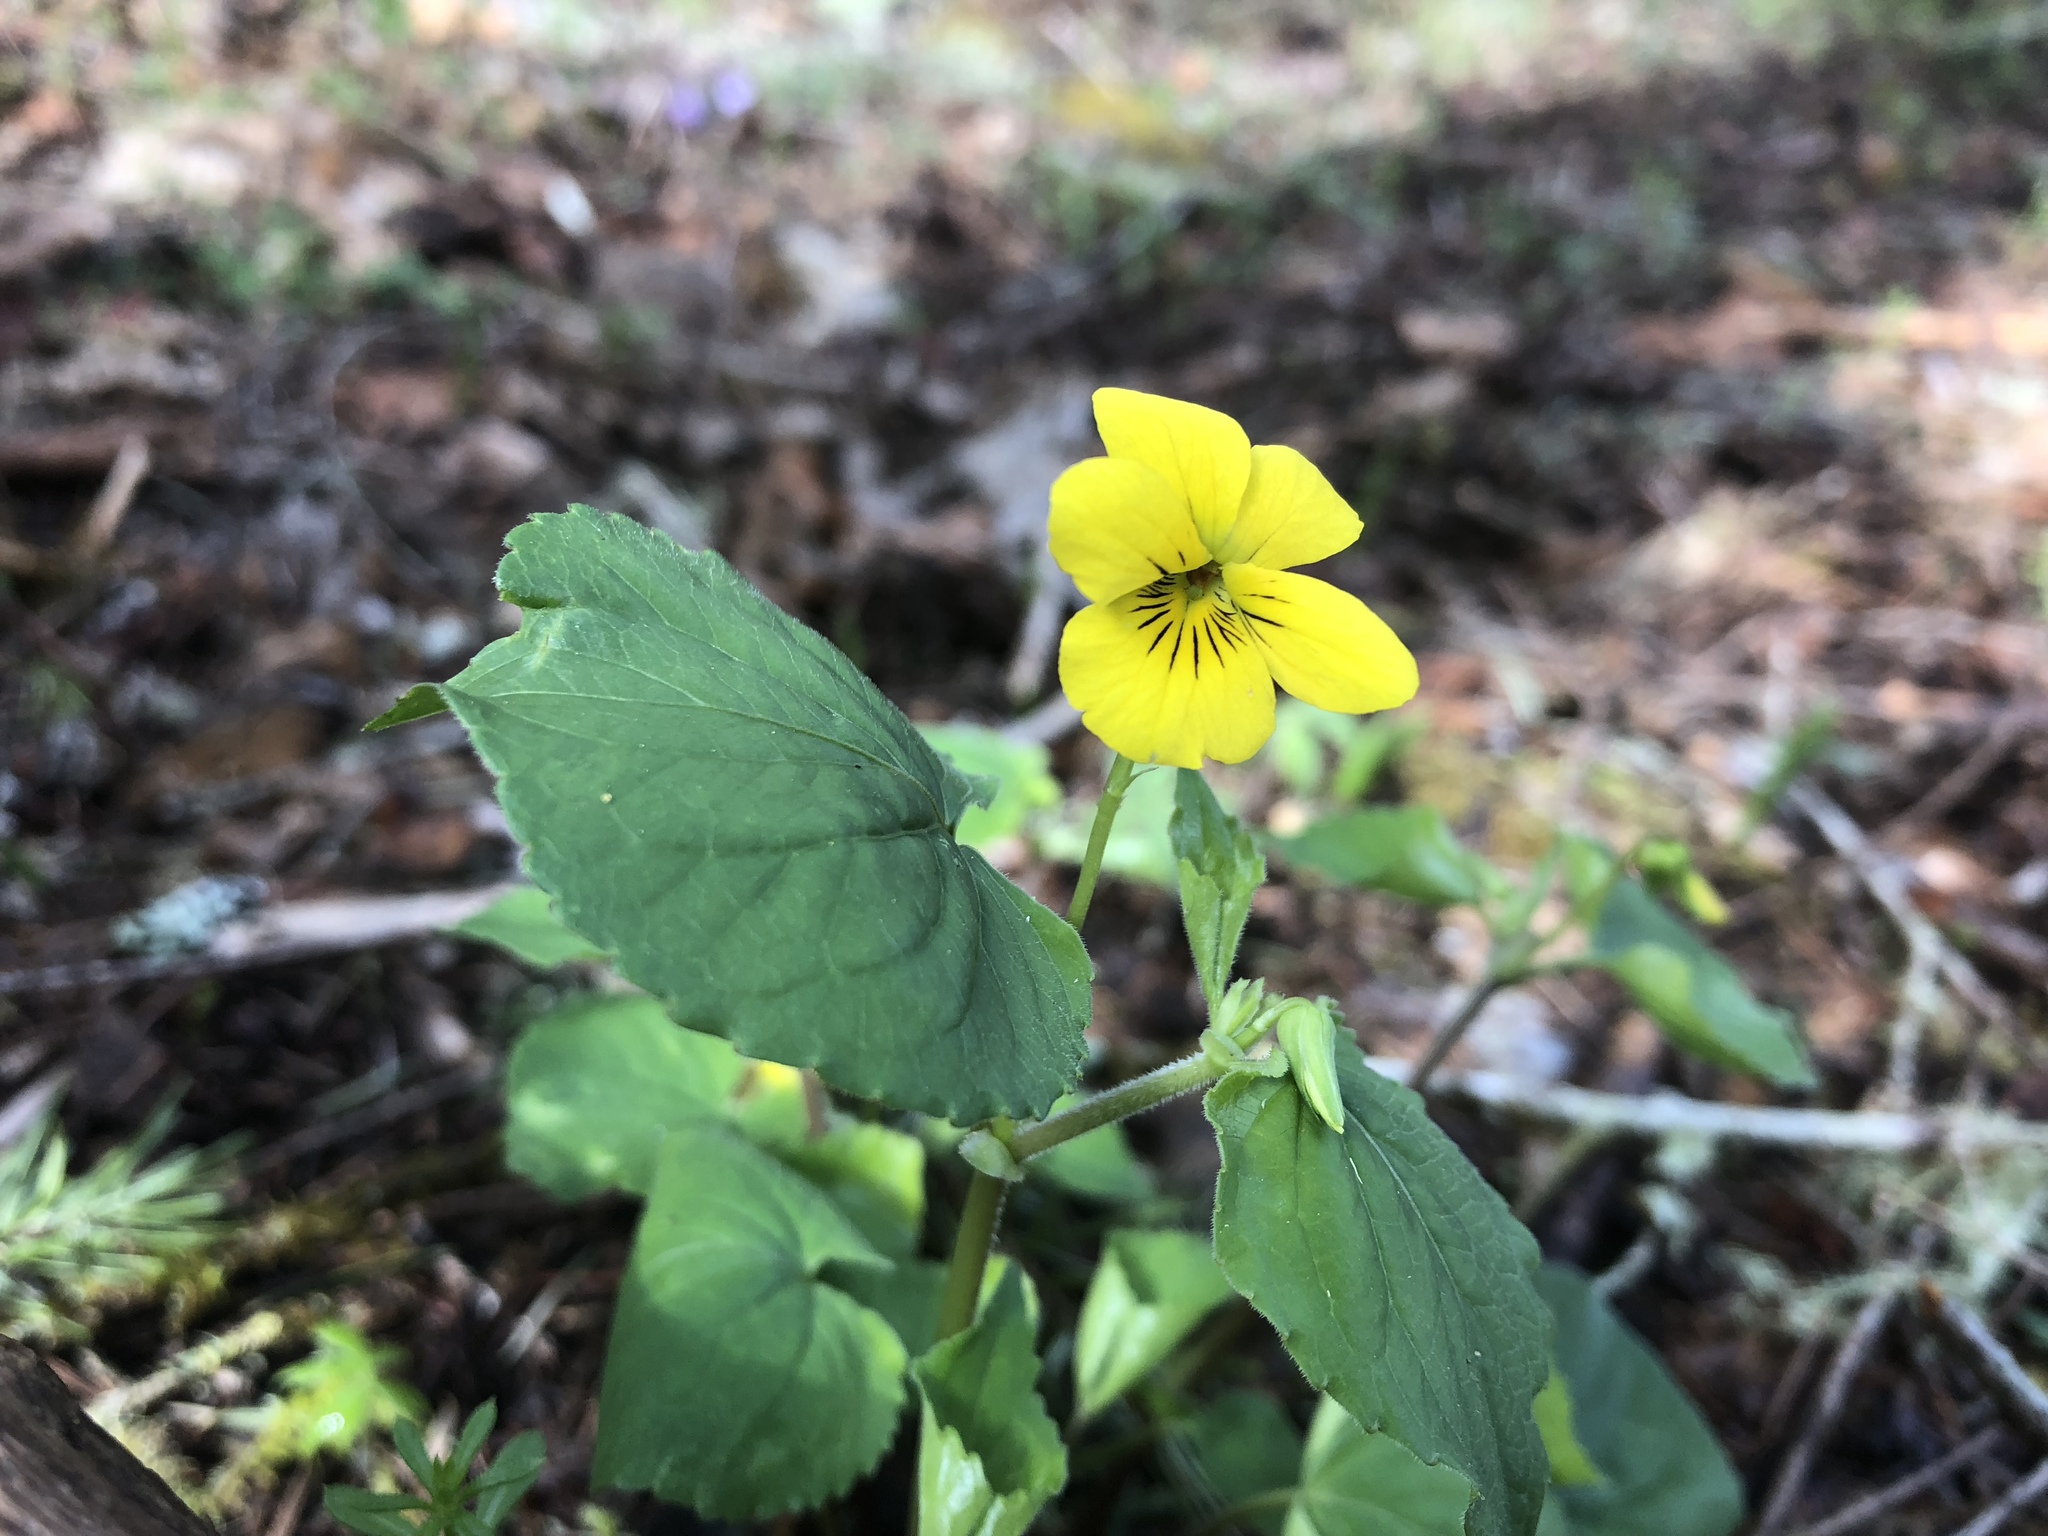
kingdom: Plantae
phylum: Tracheophyta
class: Magnoliopsida
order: Malpighiales
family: Violaceae
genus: Viola
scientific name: Viola glabella
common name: Stream violet
